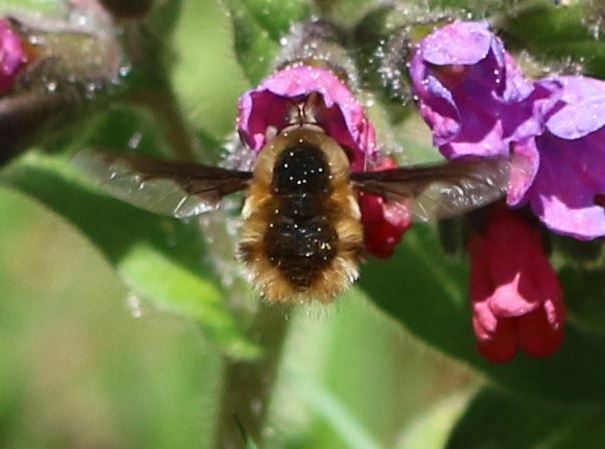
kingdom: Animalia
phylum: Arthropoda
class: Insecta
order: Diptera
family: Bombyliidae
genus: Bombylius
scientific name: Bombylius major
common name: Bee fly
